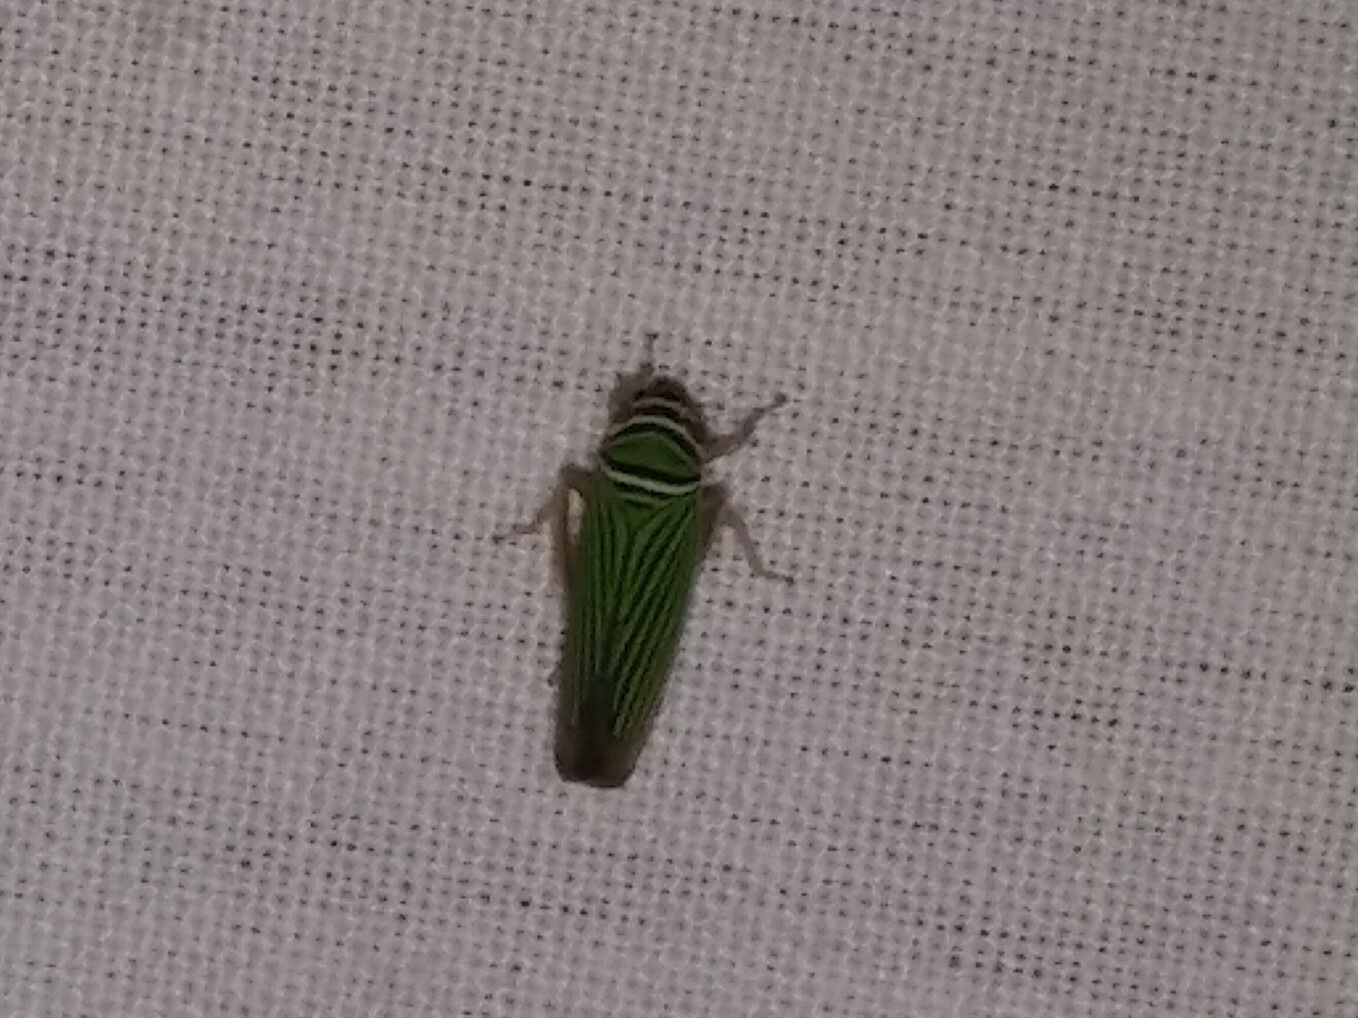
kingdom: Animalia
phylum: Arthropoda
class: Insecta
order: Hemiptera
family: Cicadellidae
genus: Tylozygus
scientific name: Tylozygus bifidus
